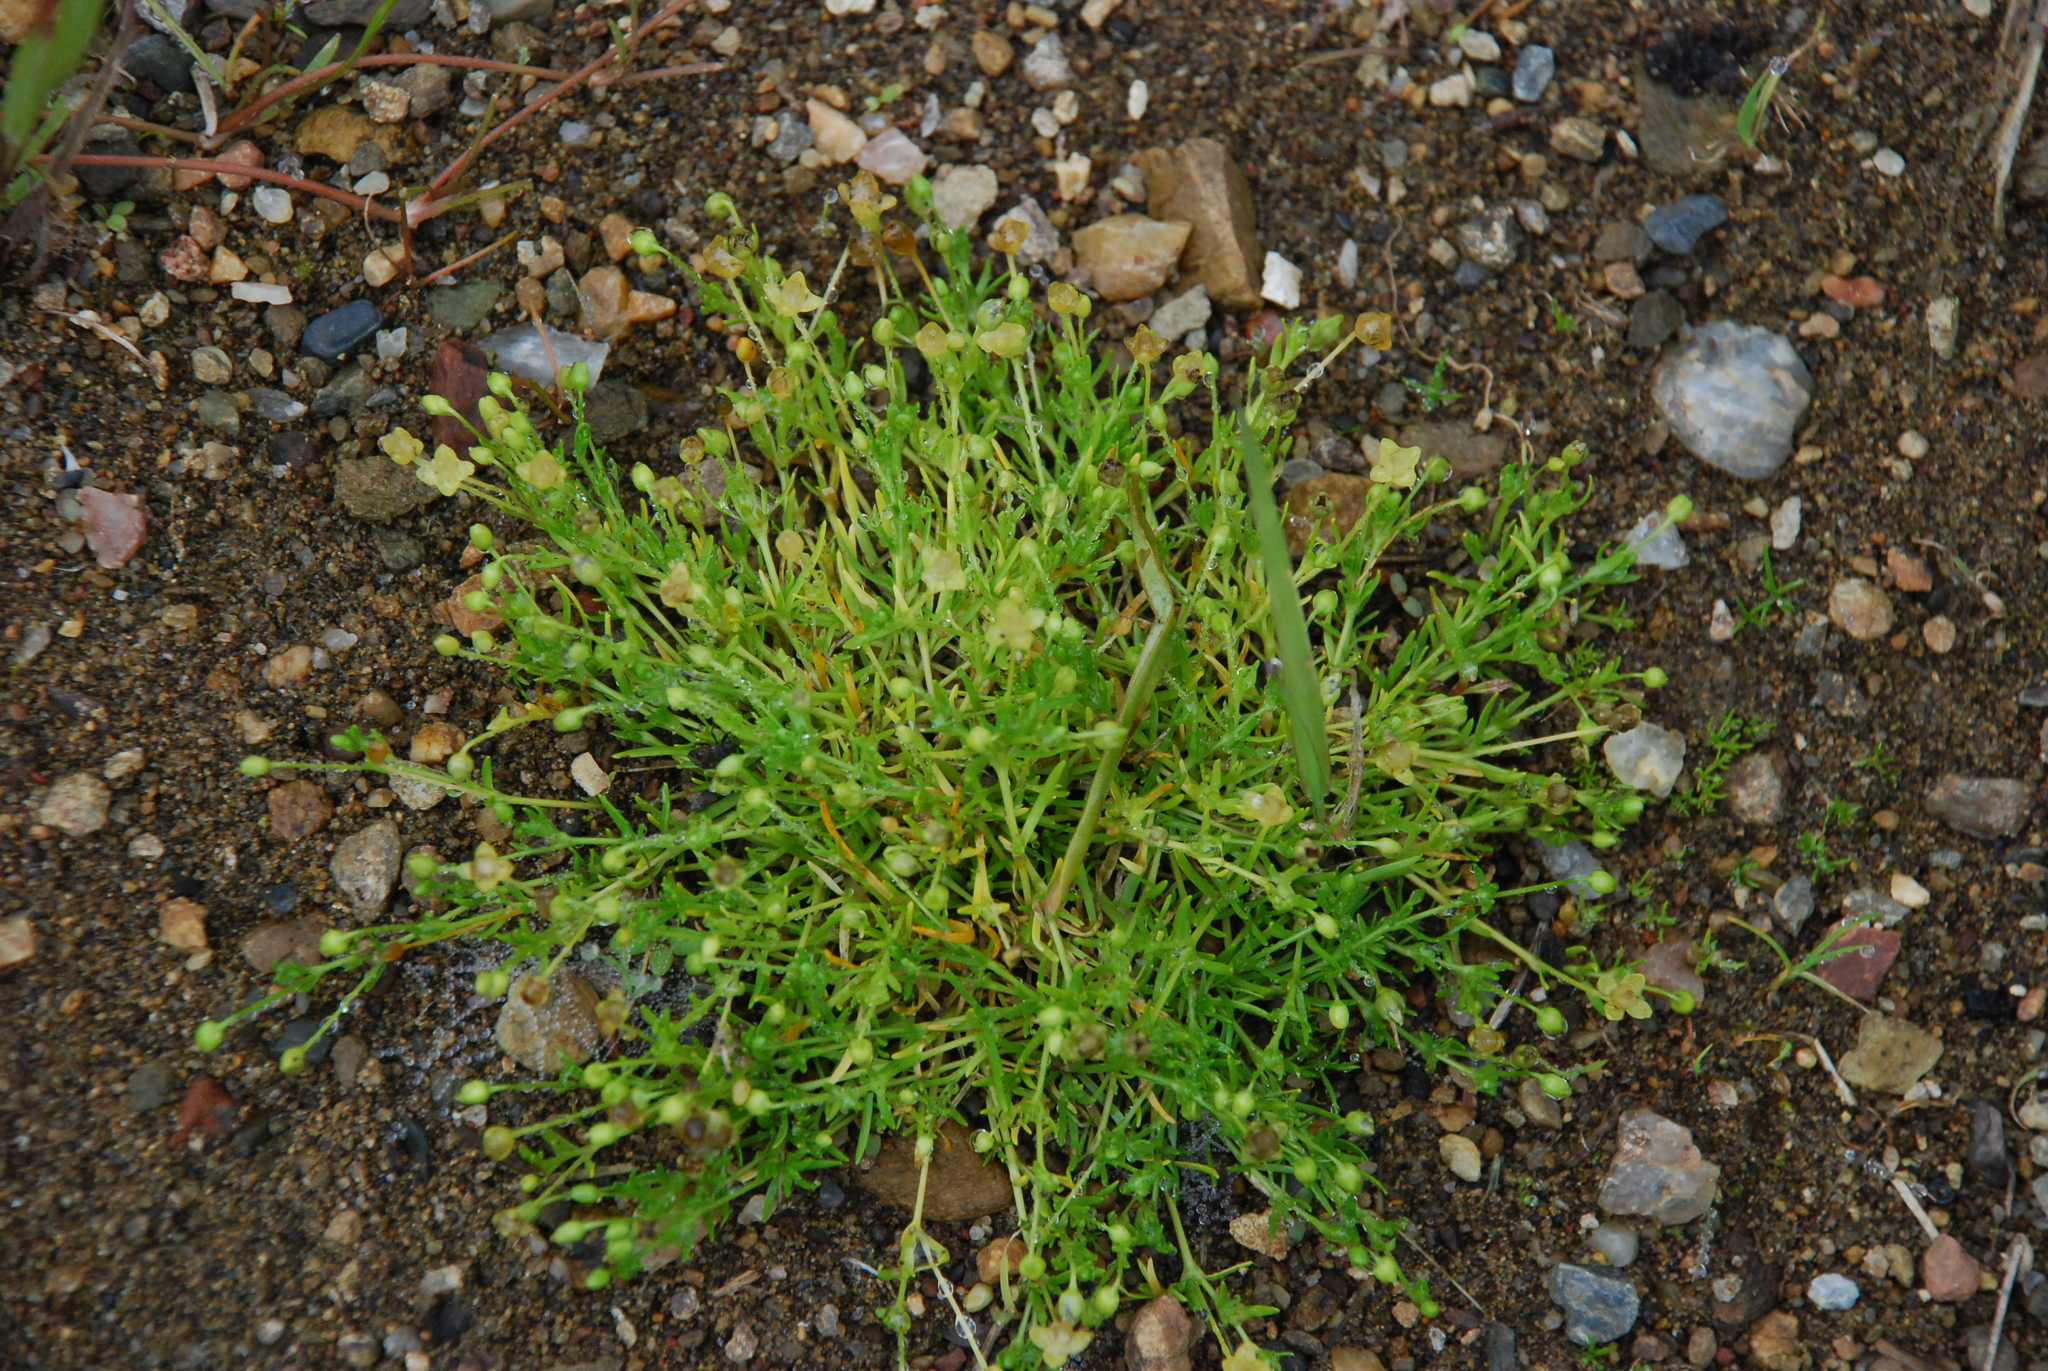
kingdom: Plantae
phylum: Tracheophyta
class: Magnoliopsida
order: Caryophyllales
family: Caryophyllaceae
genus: Sagina
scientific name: Sagina procumbens
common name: Procumbent pearlwort
